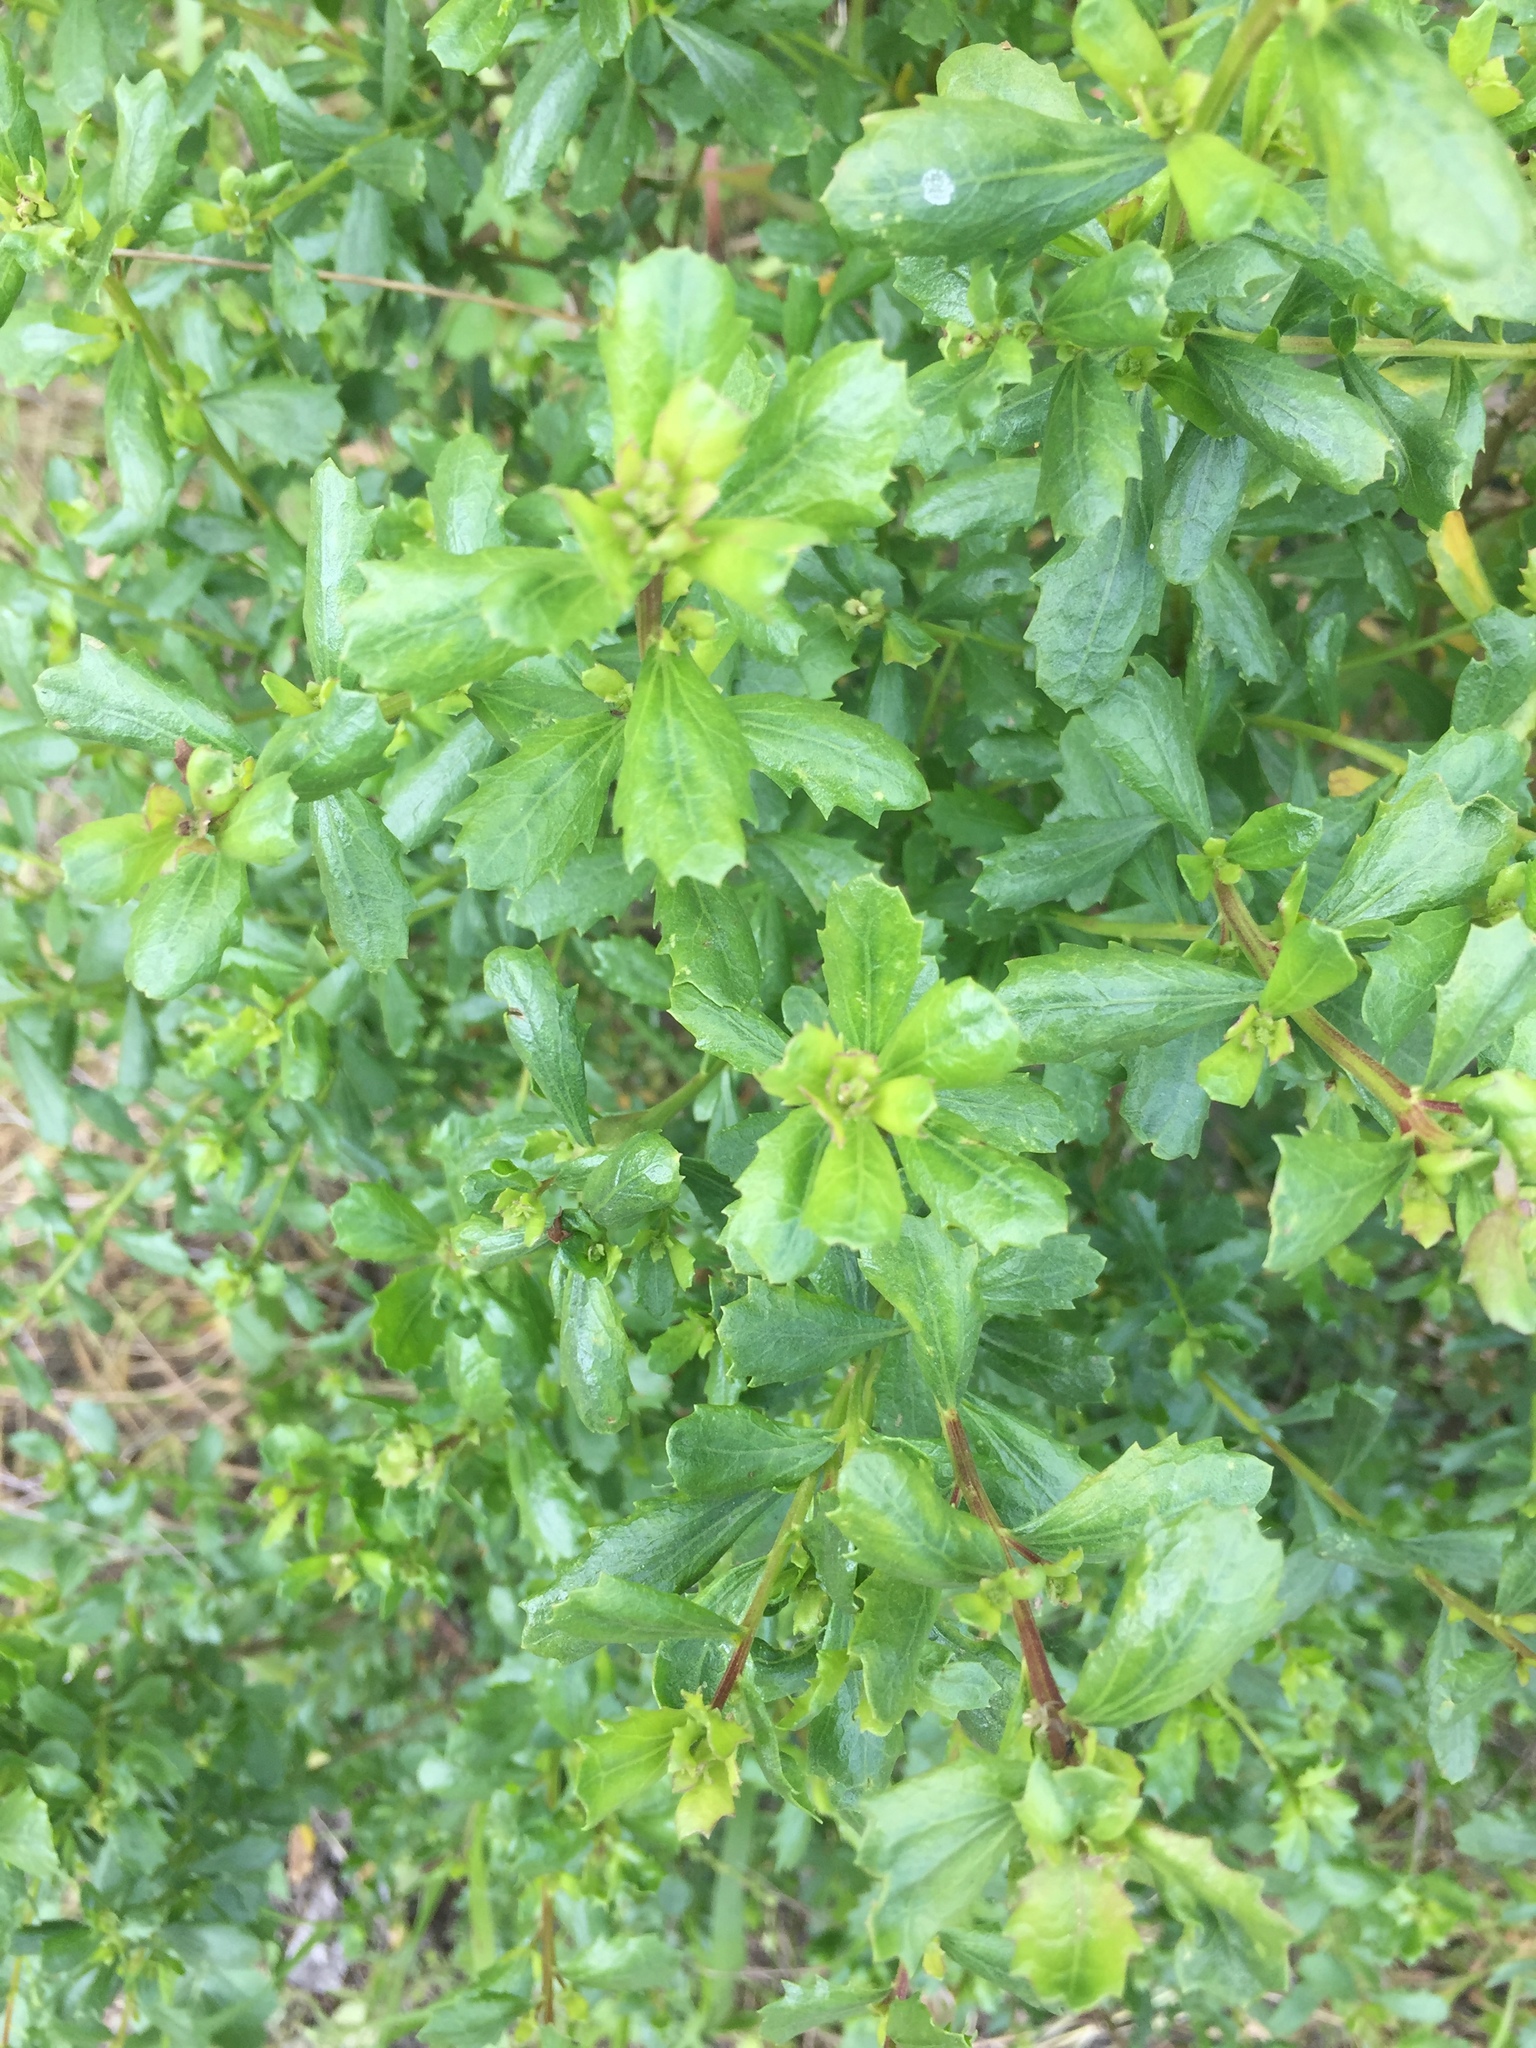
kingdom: Plantae
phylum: Tracheophyta
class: Magnoliopsida
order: Asterales
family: Asteraceae
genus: Baccharis
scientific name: Baccharis pilularis
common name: Coyotebrush
